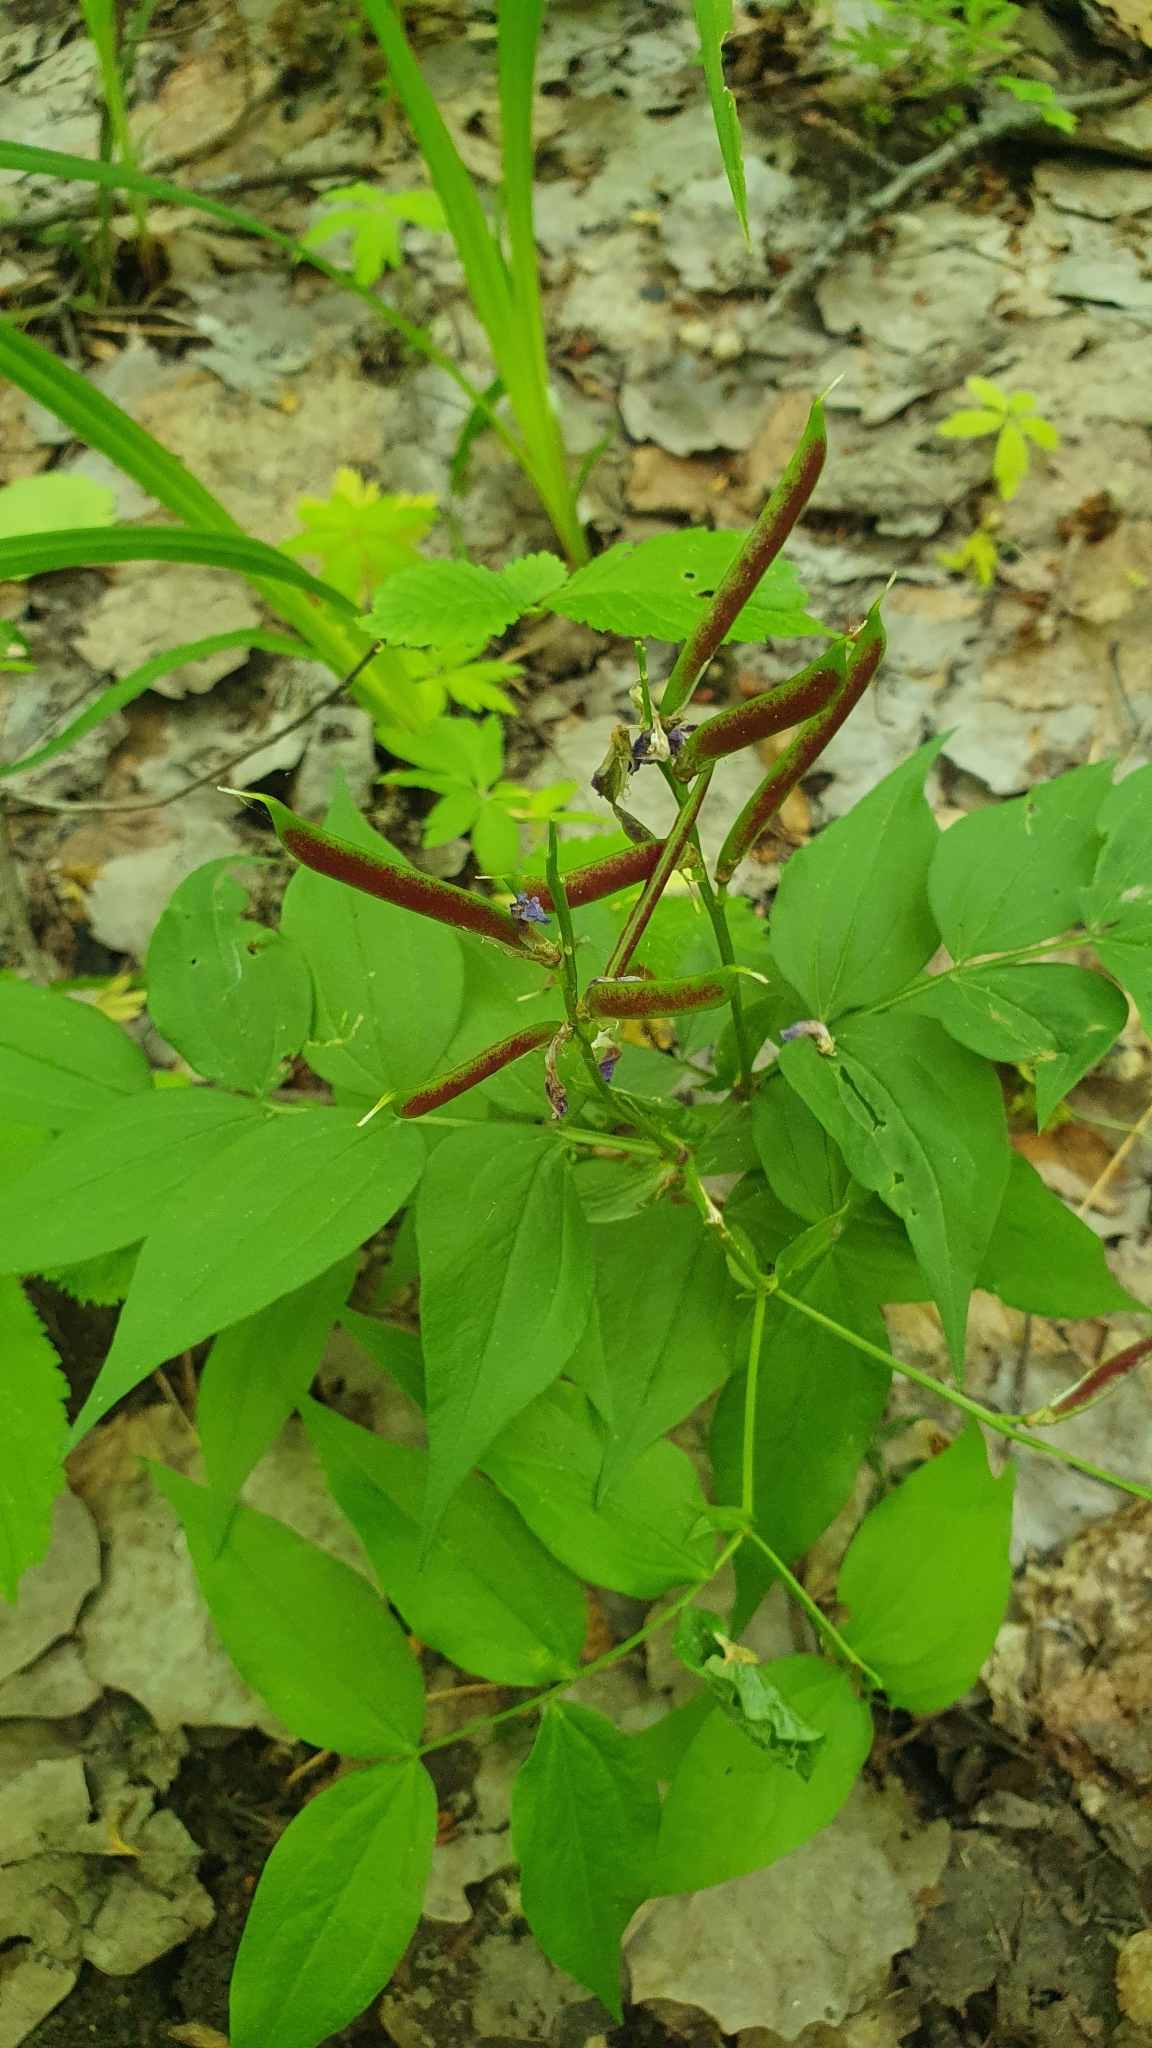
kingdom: Plantae
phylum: Tracheophyta
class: Magnoliopsida
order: Fabales
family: Fabaceae
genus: Lathyrus
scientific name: Lathyrus vernus
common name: Spring pea
